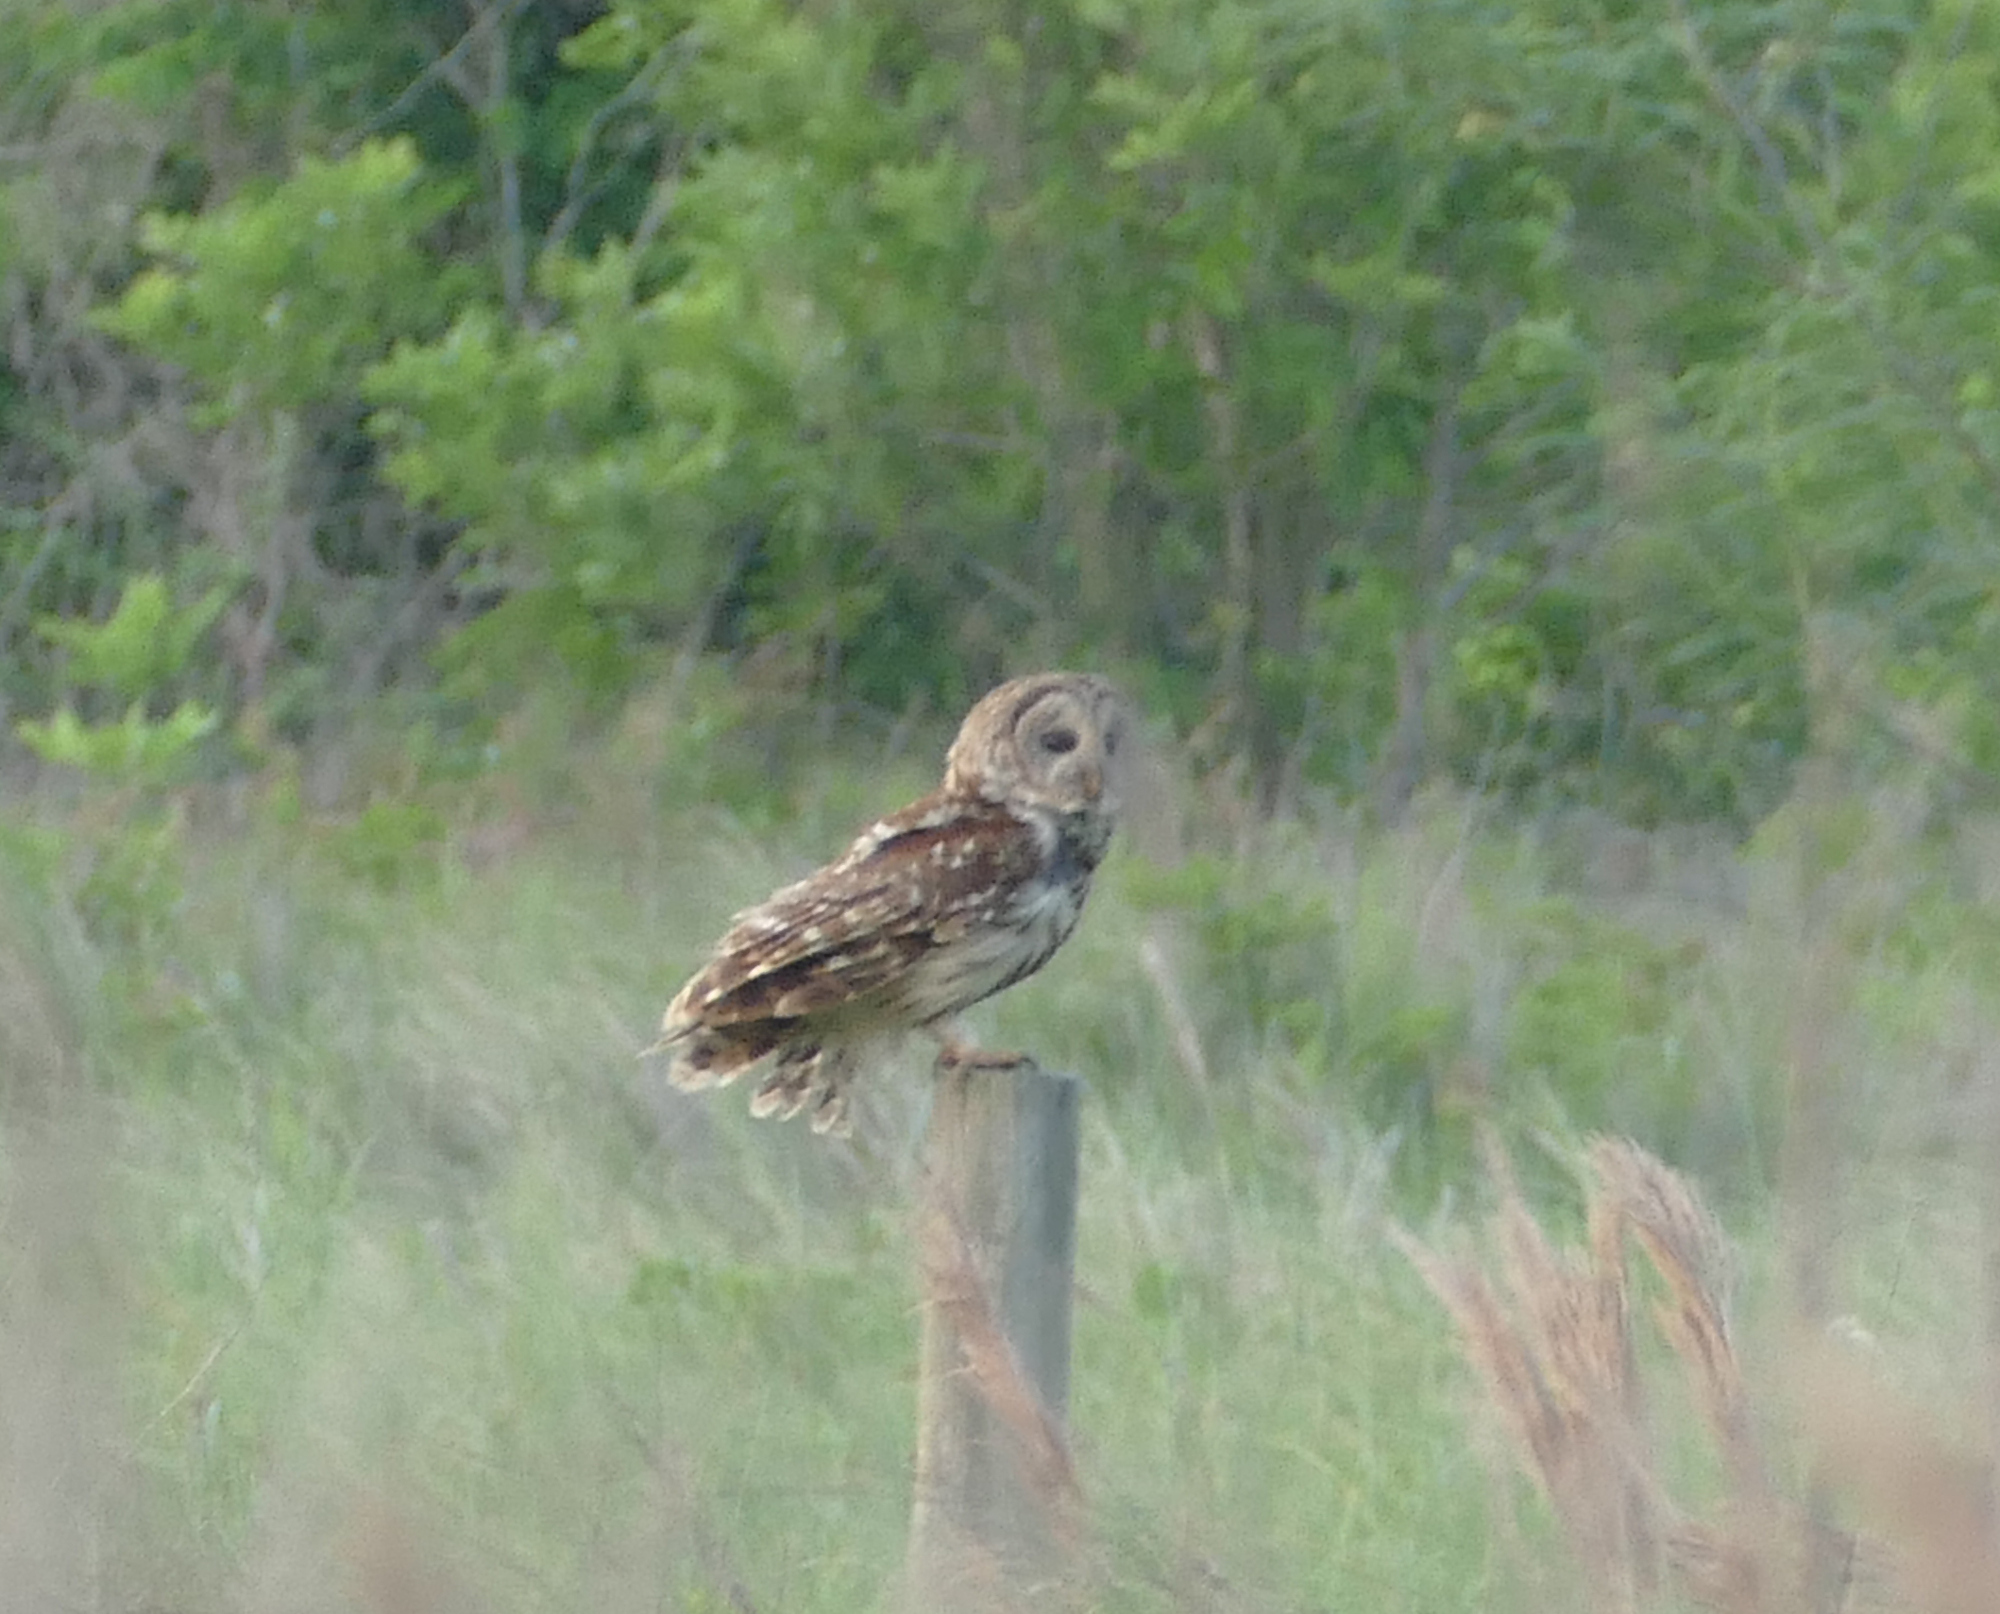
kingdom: Animalia
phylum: Chordata
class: Aves
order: Strigiformes
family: Strigidae
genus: Strix
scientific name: Strix varia
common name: Barred owl
